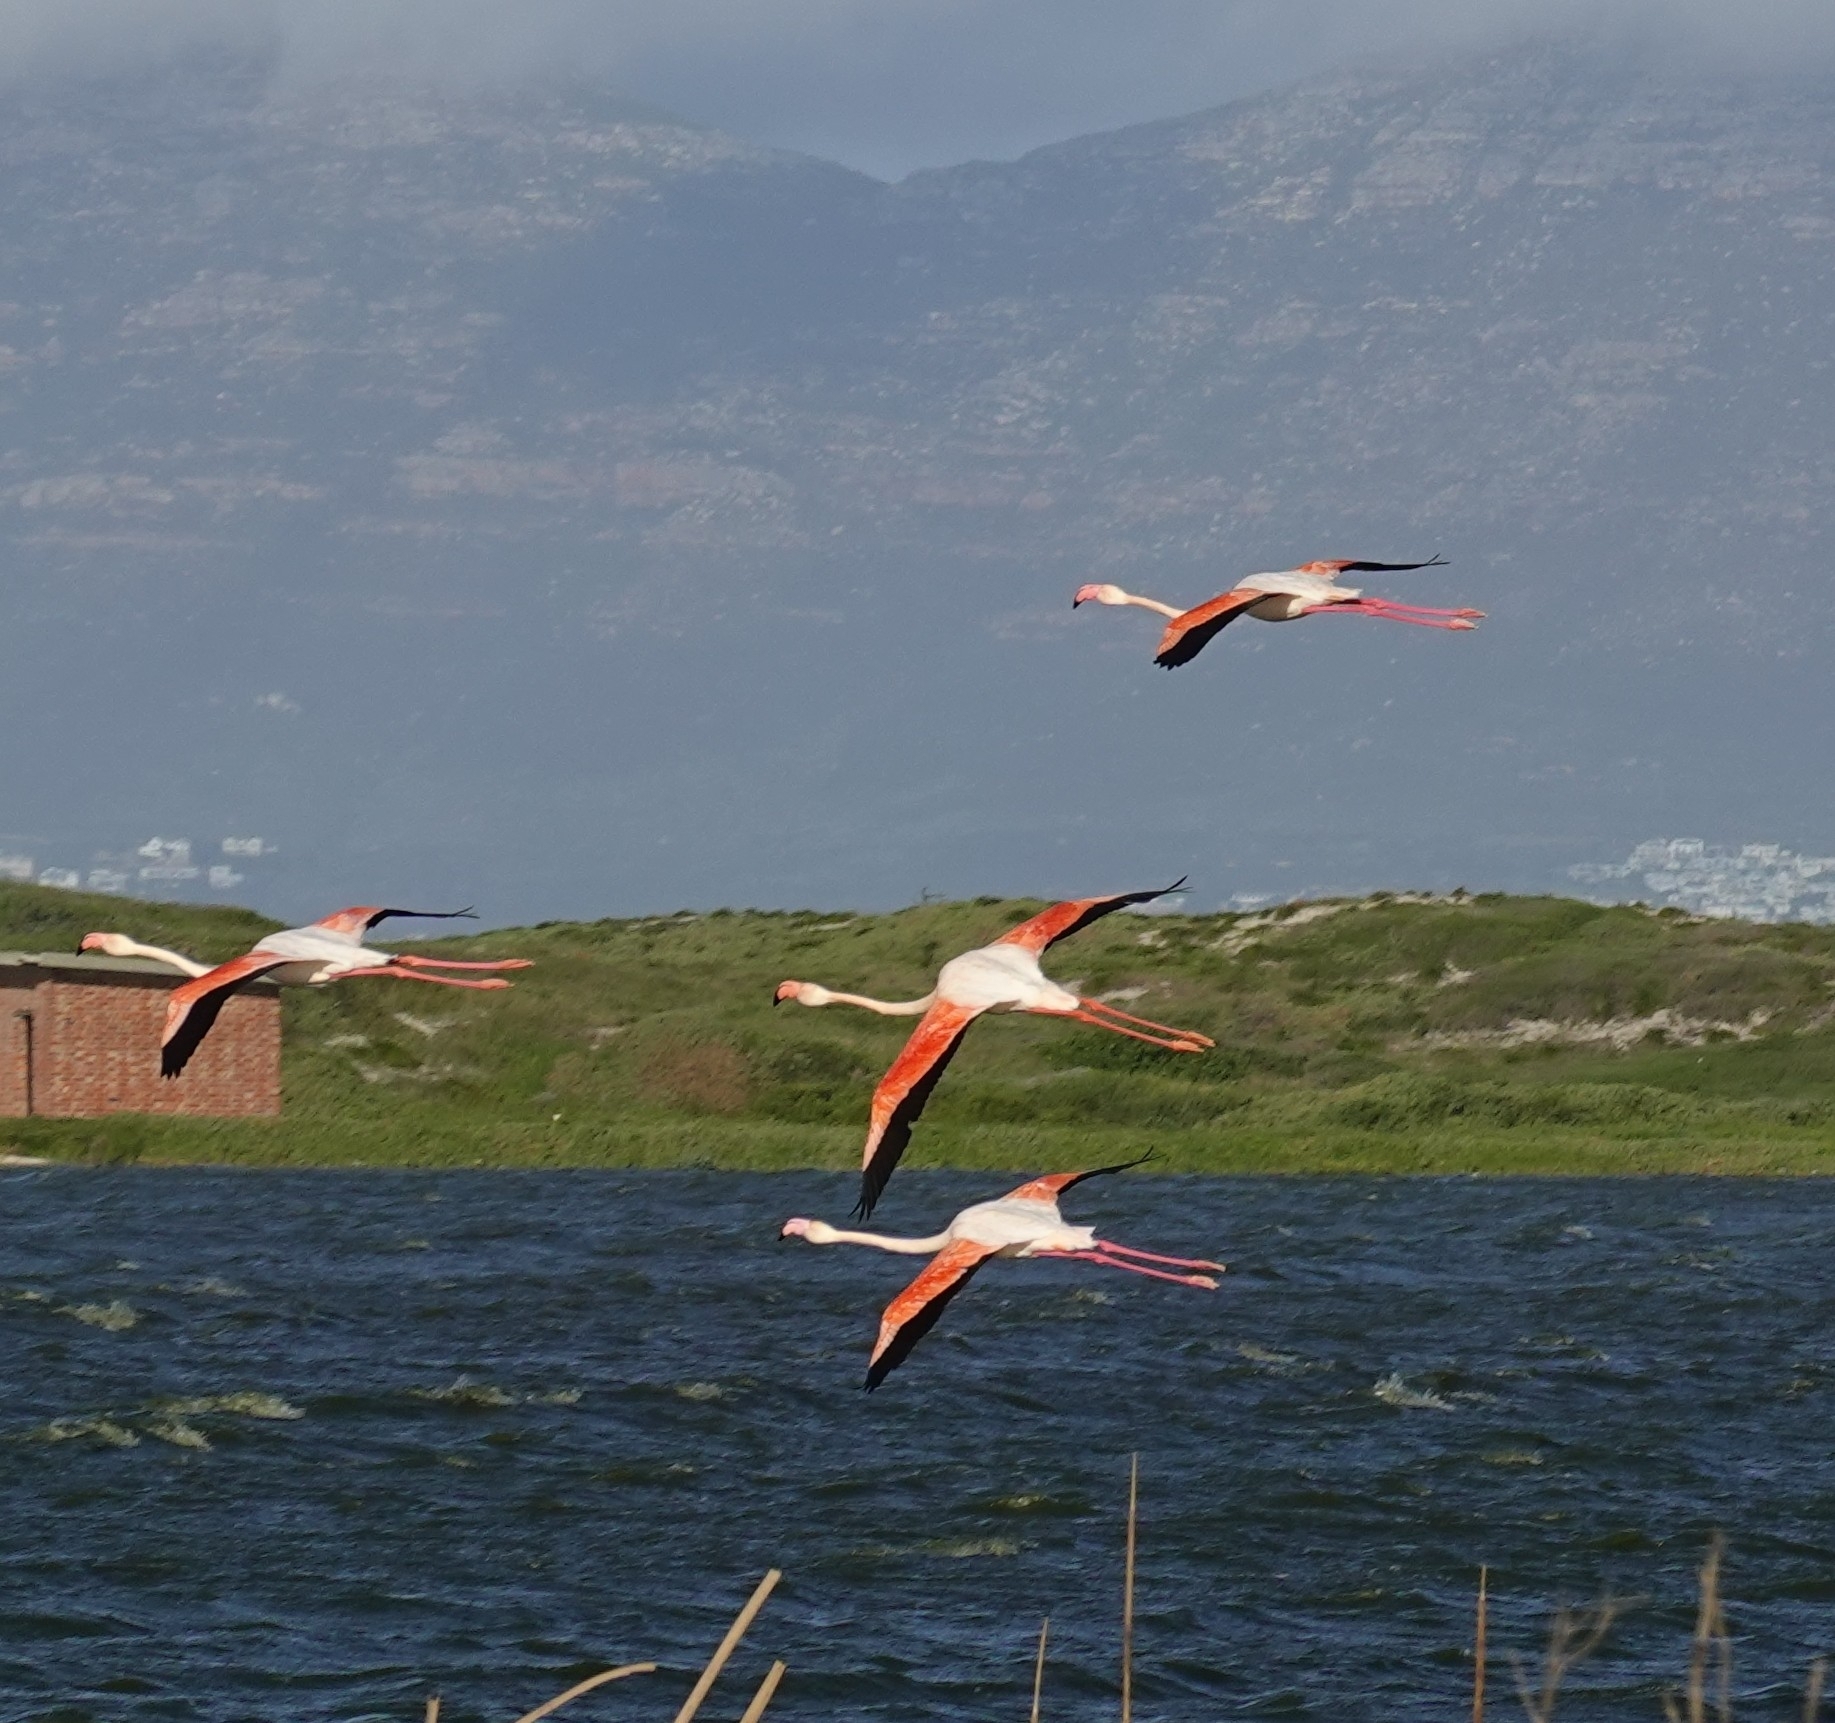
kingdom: Animalia
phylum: Chordata
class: Aves
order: Phoenicopteriformes
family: Phoenicopteridae
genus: Phoenicopterus
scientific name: Phoenicopterus roseus
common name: Greater flamingo
